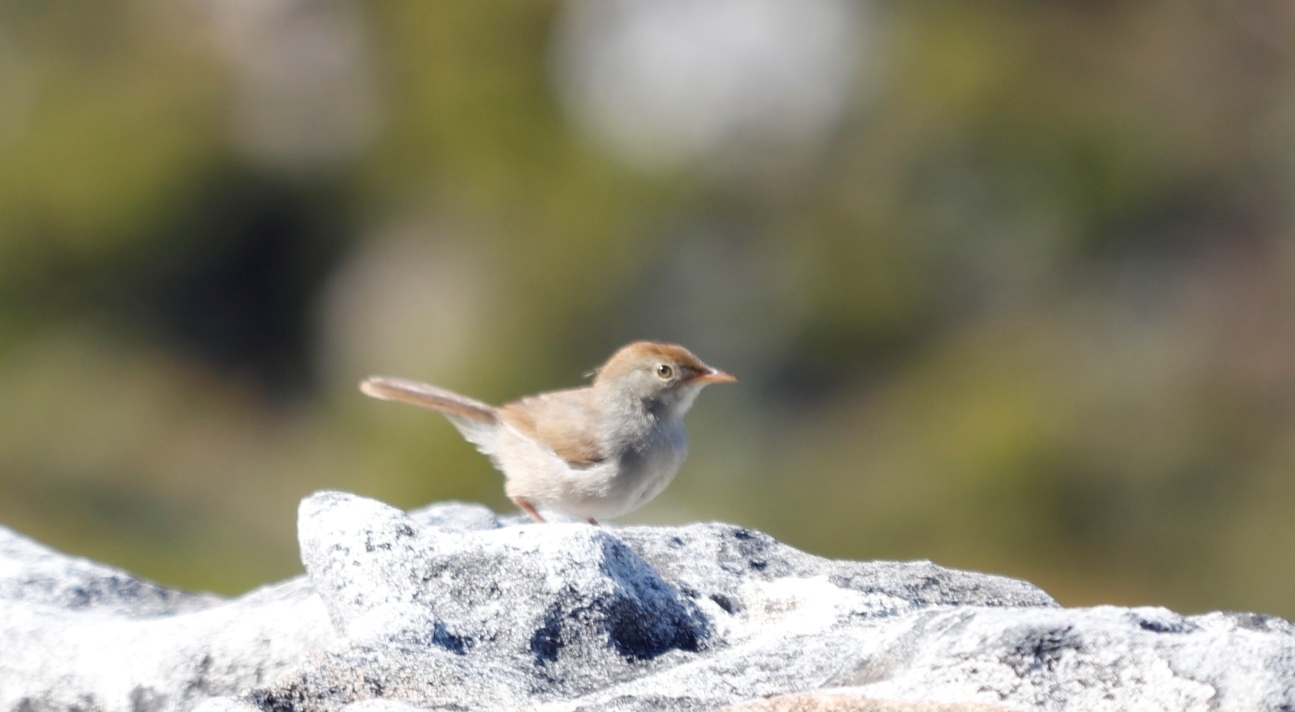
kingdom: Animalia
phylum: Chordata
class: Aves
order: Passeriformes
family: Cisticolidae
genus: Cisticola
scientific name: Cisticola fulvicapilla
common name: Neddicky
